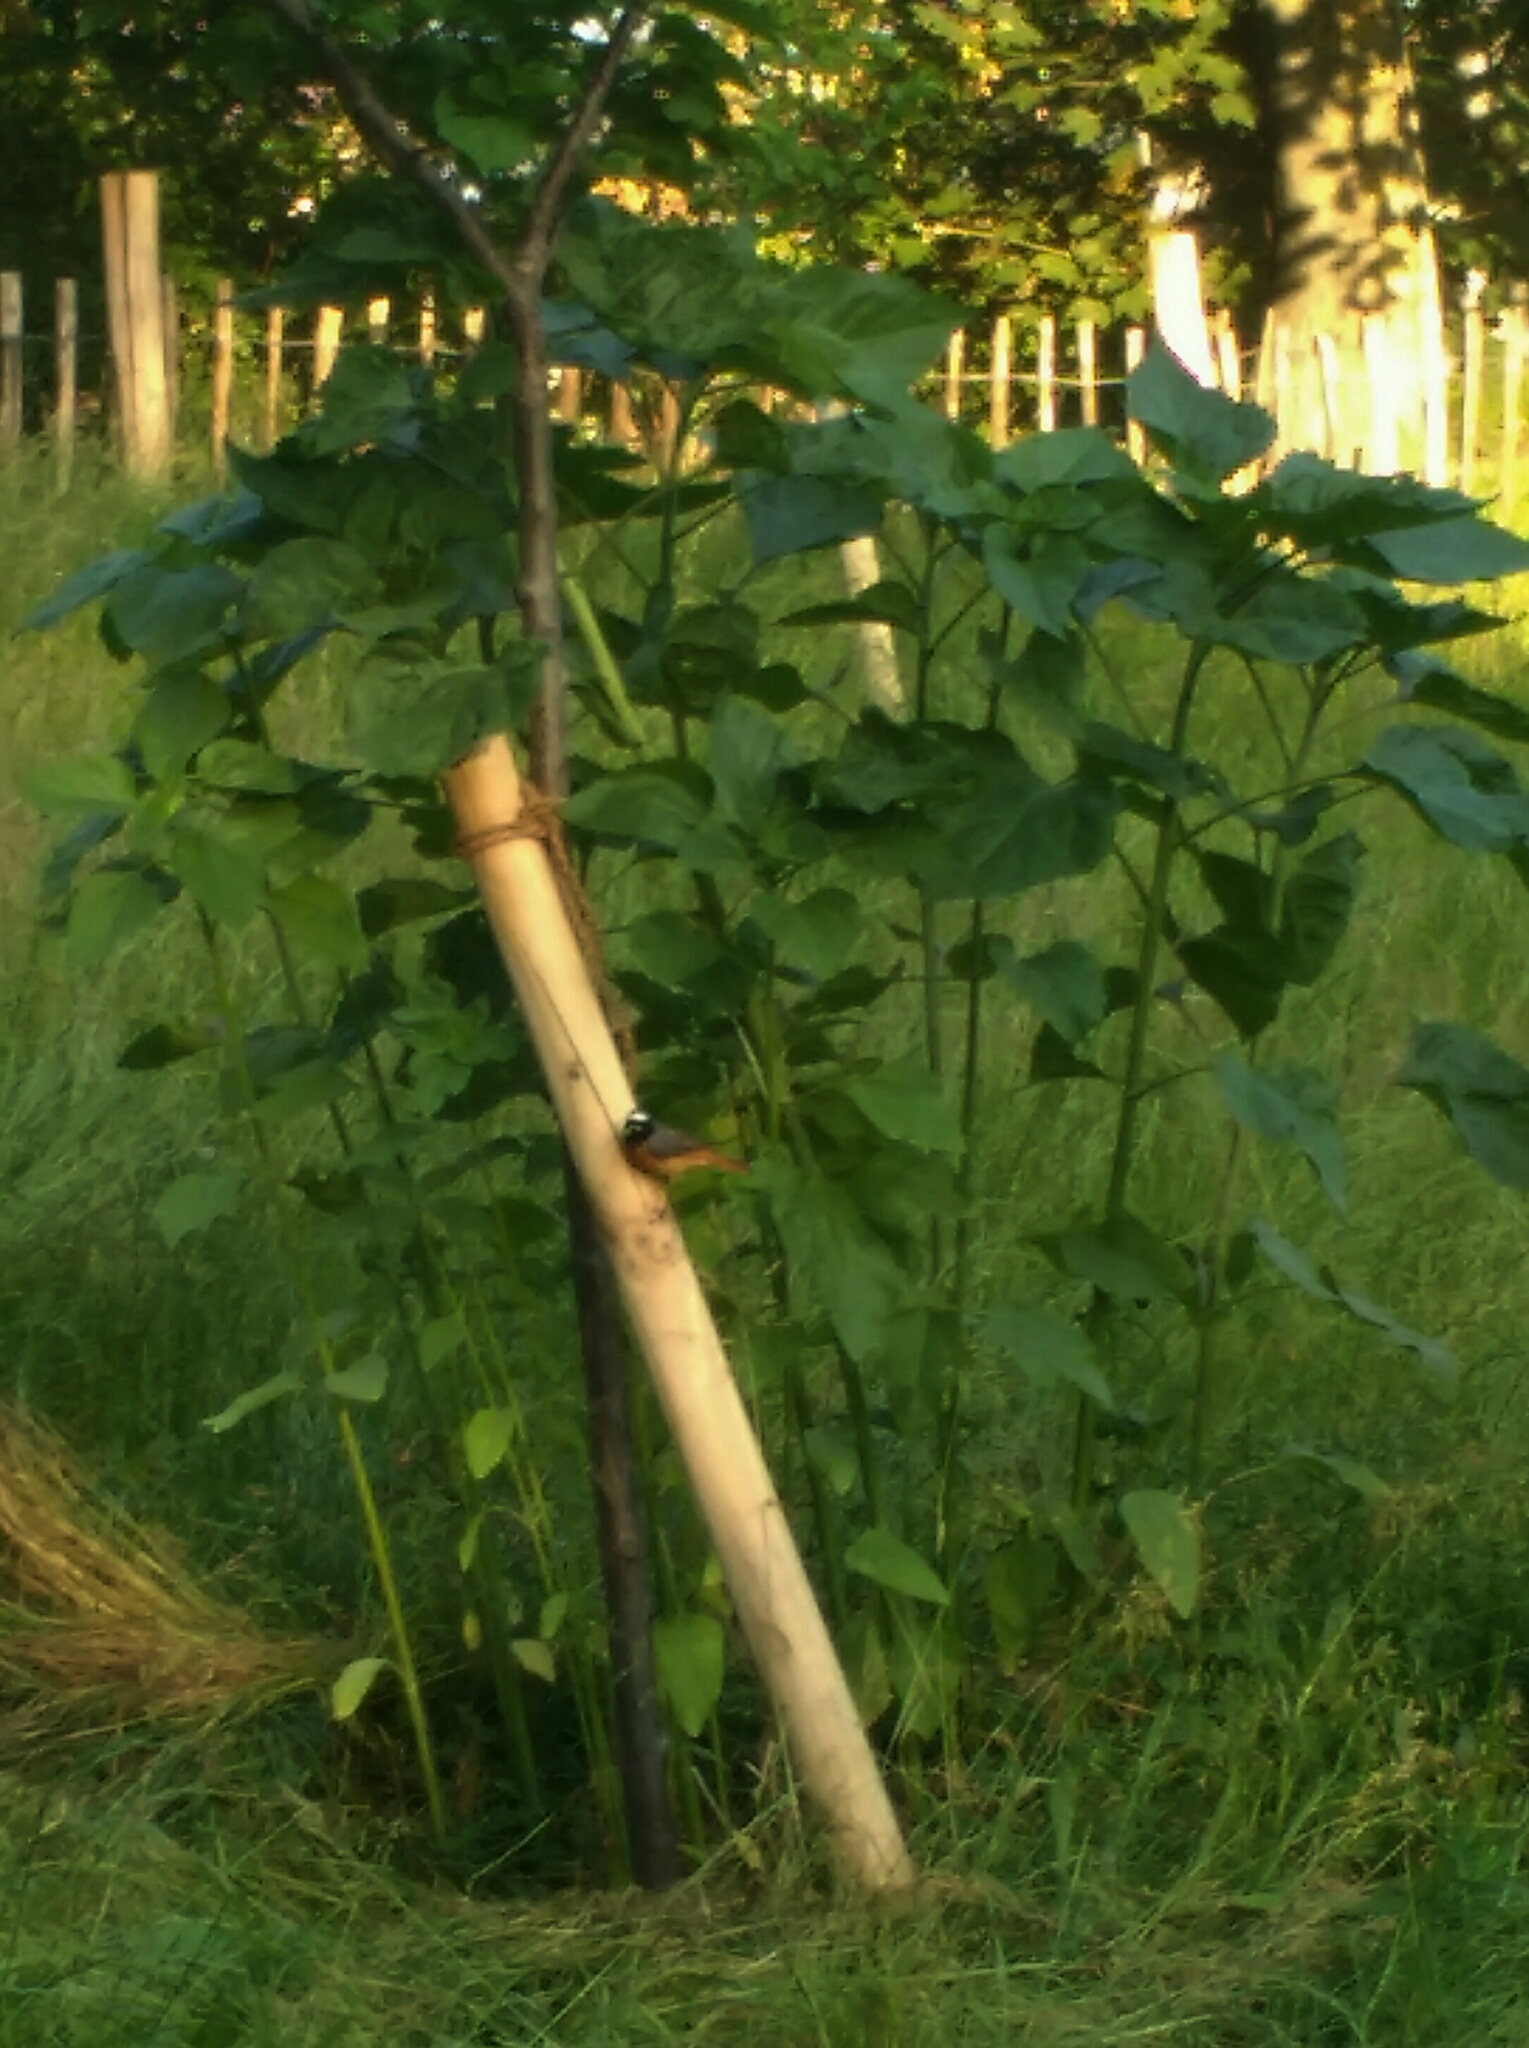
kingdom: Animalia
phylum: Chordata
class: Aves
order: Passeriformes
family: Muscicapidae
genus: Phoenicurus
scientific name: Phoenicurus phoenicurus
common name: Common redstart
